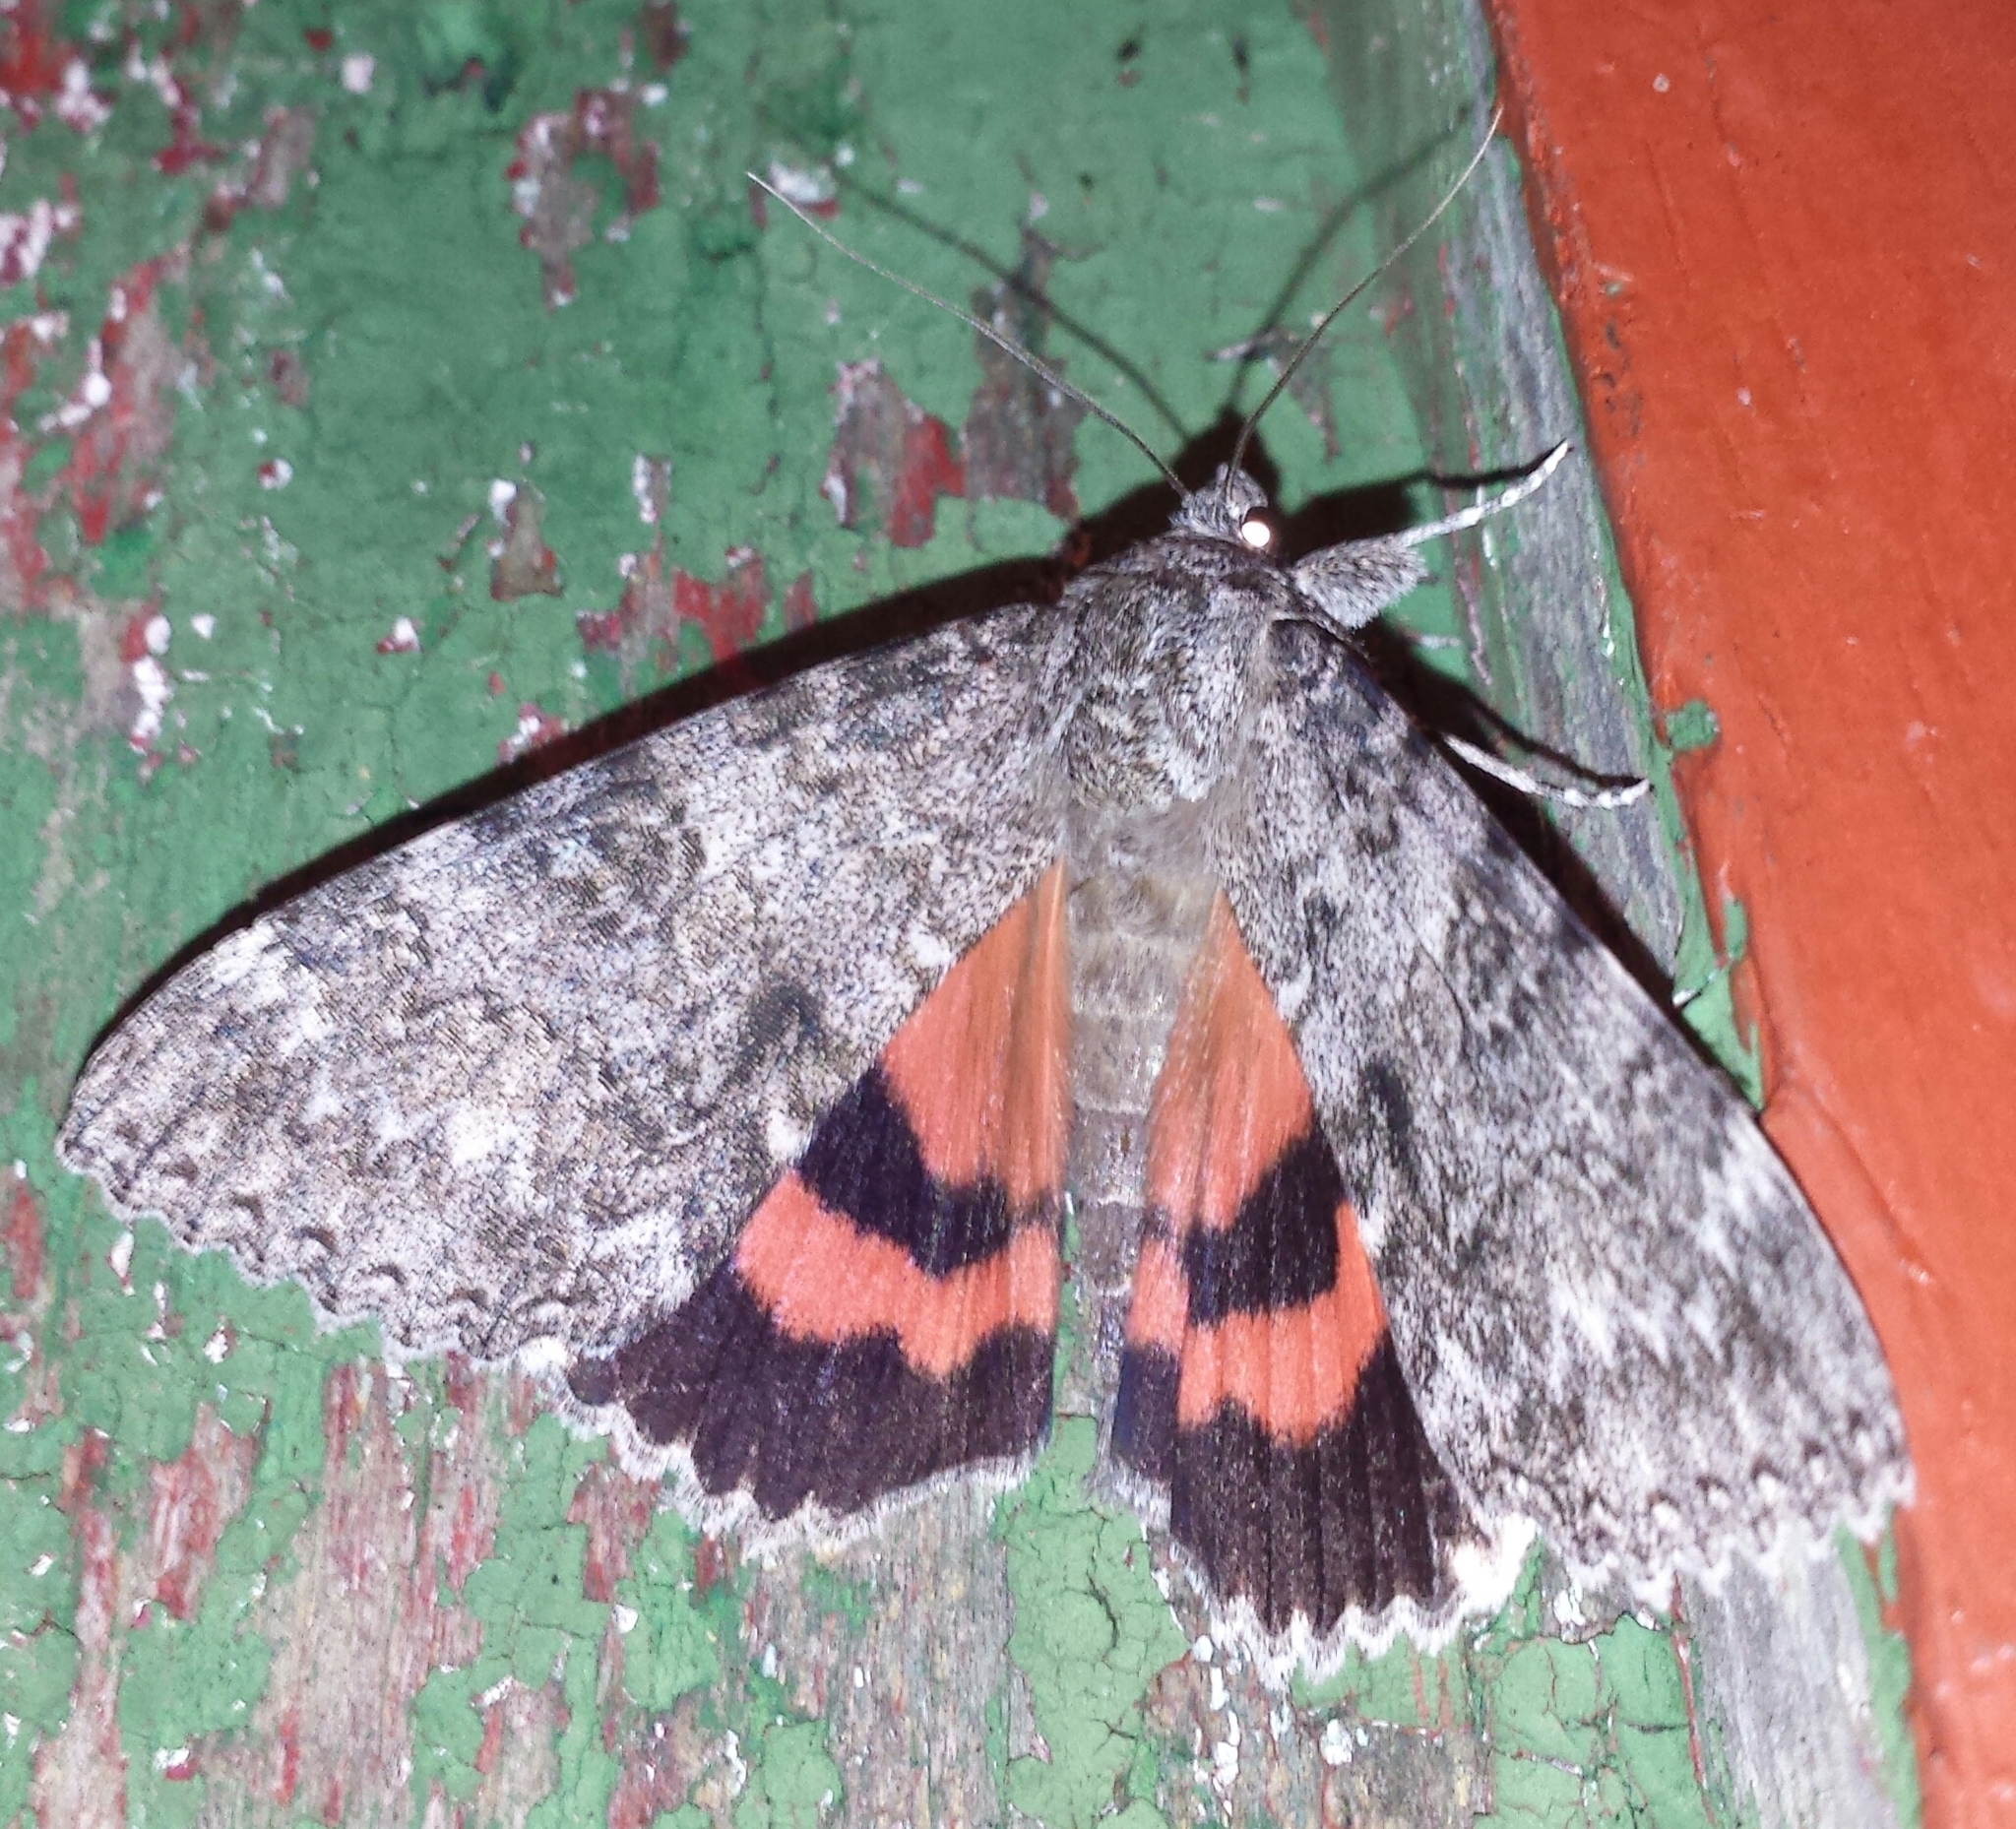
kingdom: Animalia
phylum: Arthropoda
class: Insecta
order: Lepidoptera
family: Erebidae
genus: Catocala
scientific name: Catocala unijuga
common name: Once-married underwing
